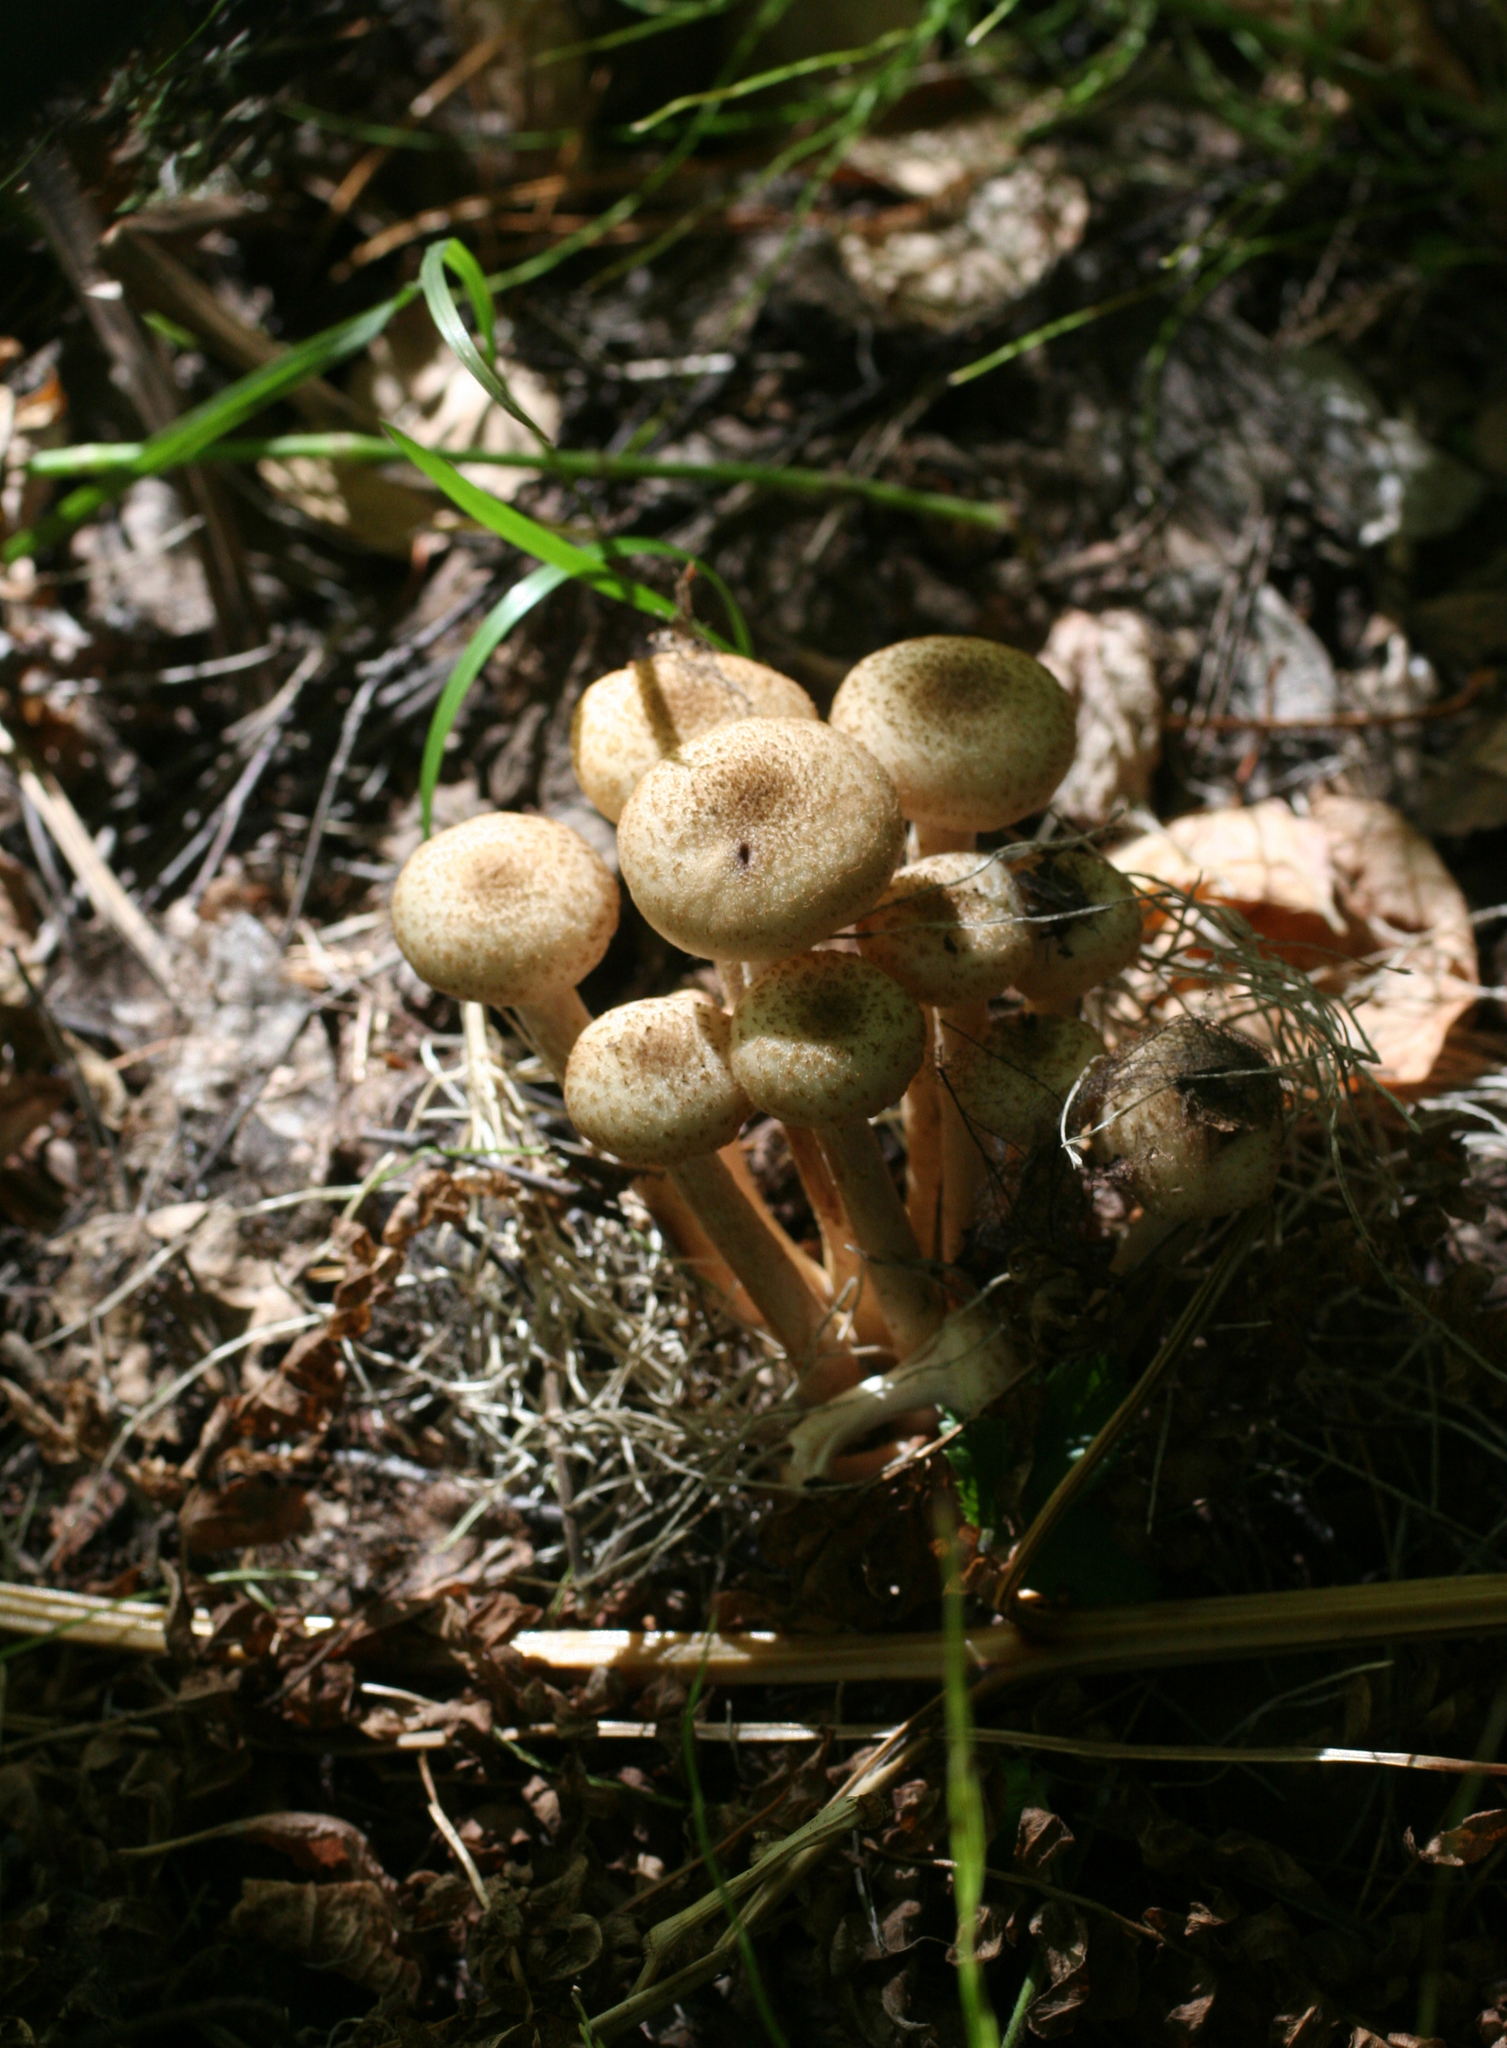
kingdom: Fungi
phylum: Basidiomycota
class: Agaricomycetes
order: Agaricales
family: Physalacriaceae
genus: Armillaria
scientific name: Armillaria borealis
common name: Northern honey fungus
